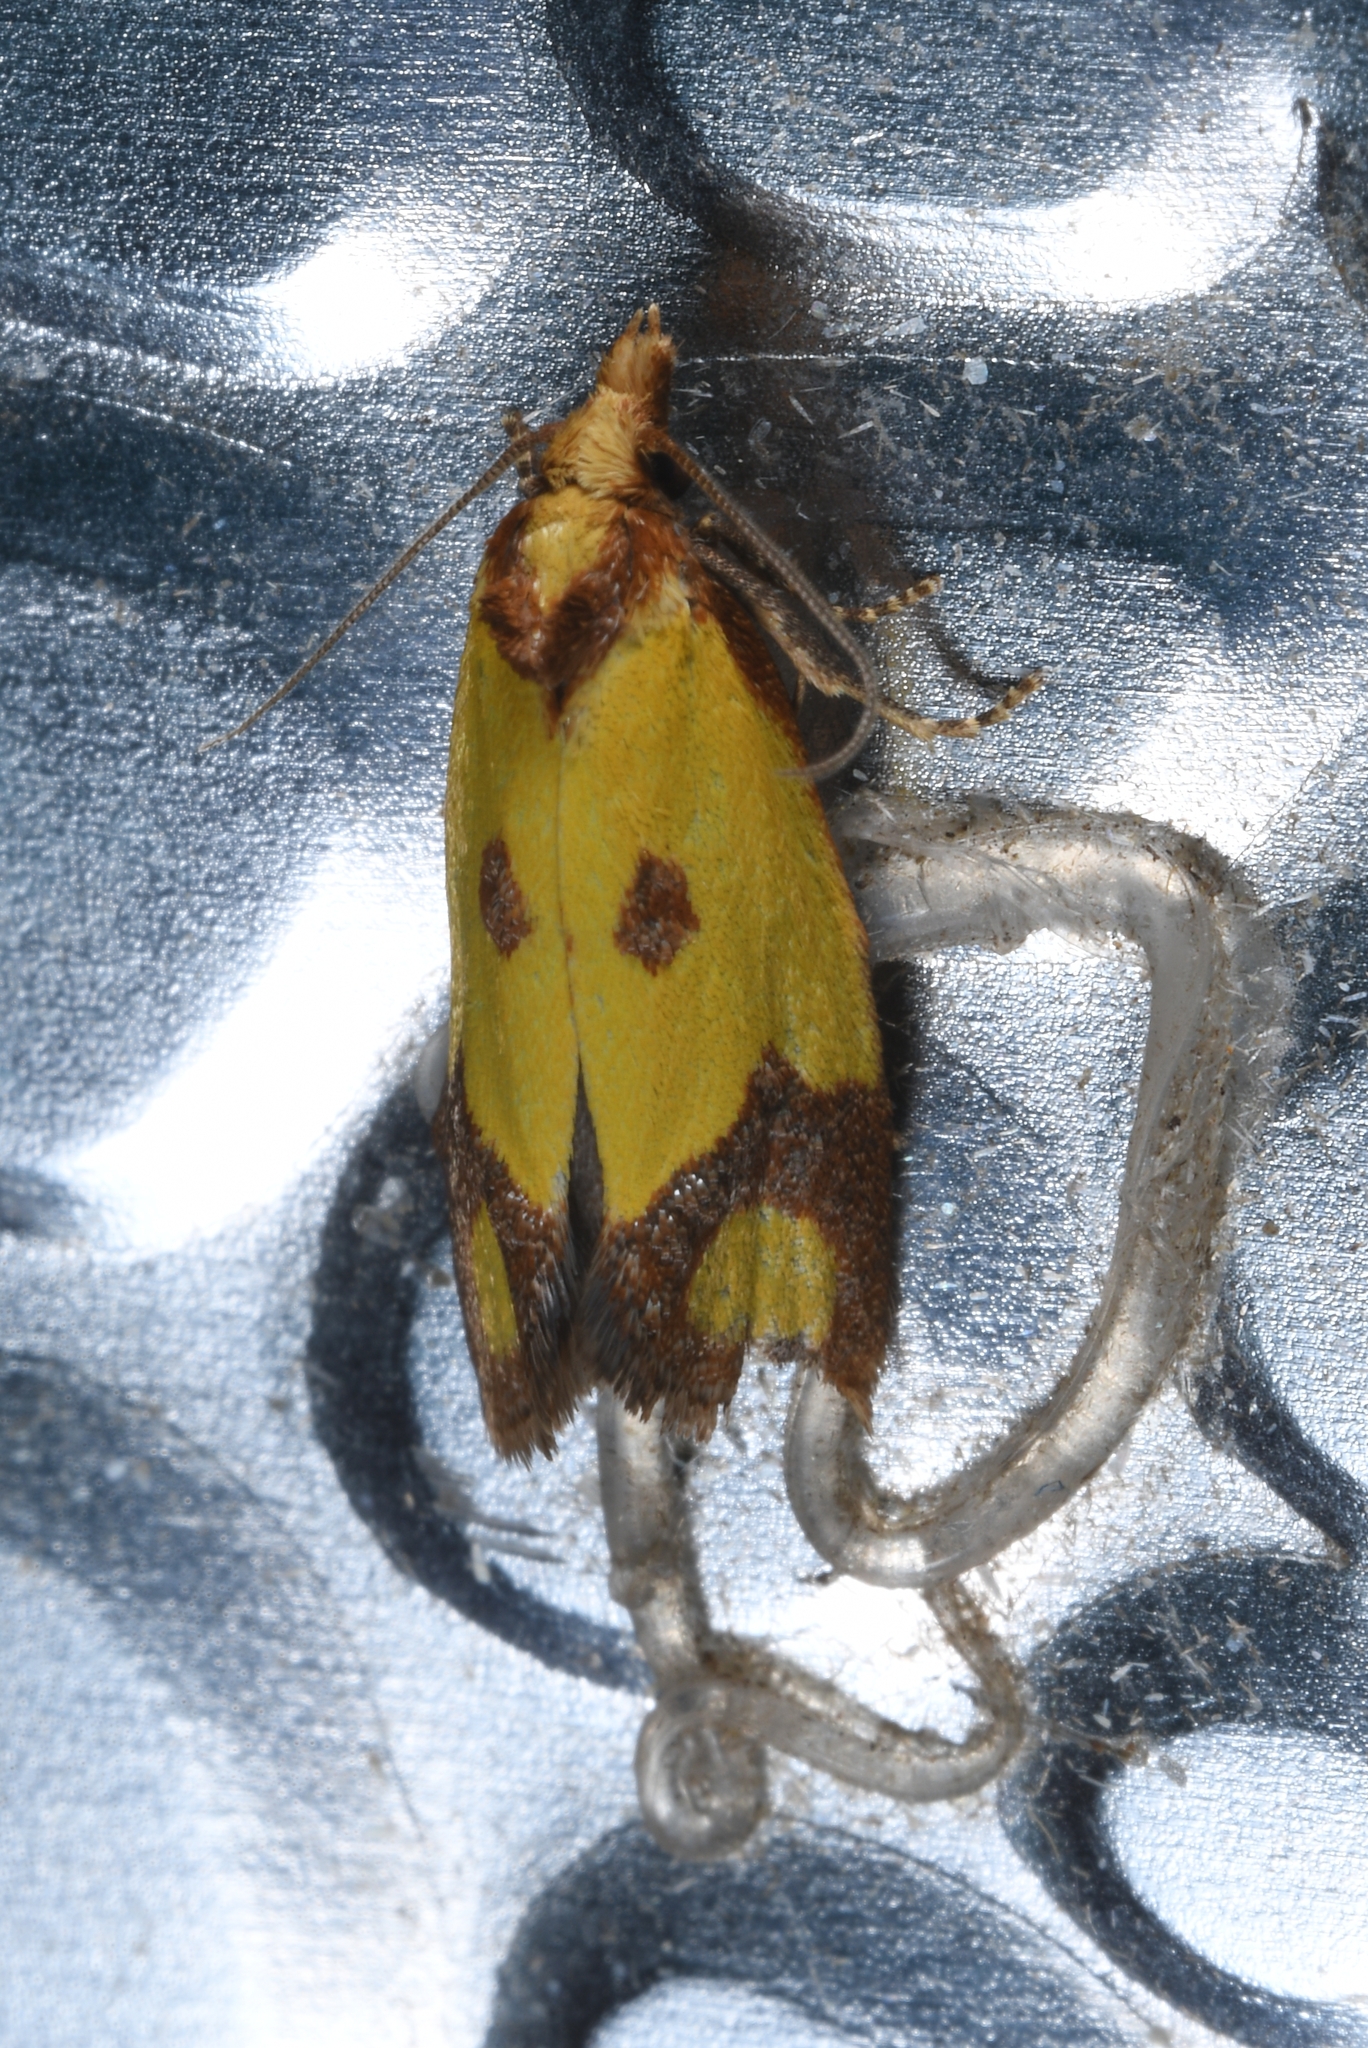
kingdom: Animalia
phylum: Arthropoda
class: Insecta
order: Lepidoptera
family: Tortricidae
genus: Agapeta
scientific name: Agapeta zoegana
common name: Sulfur knapweed root moth
